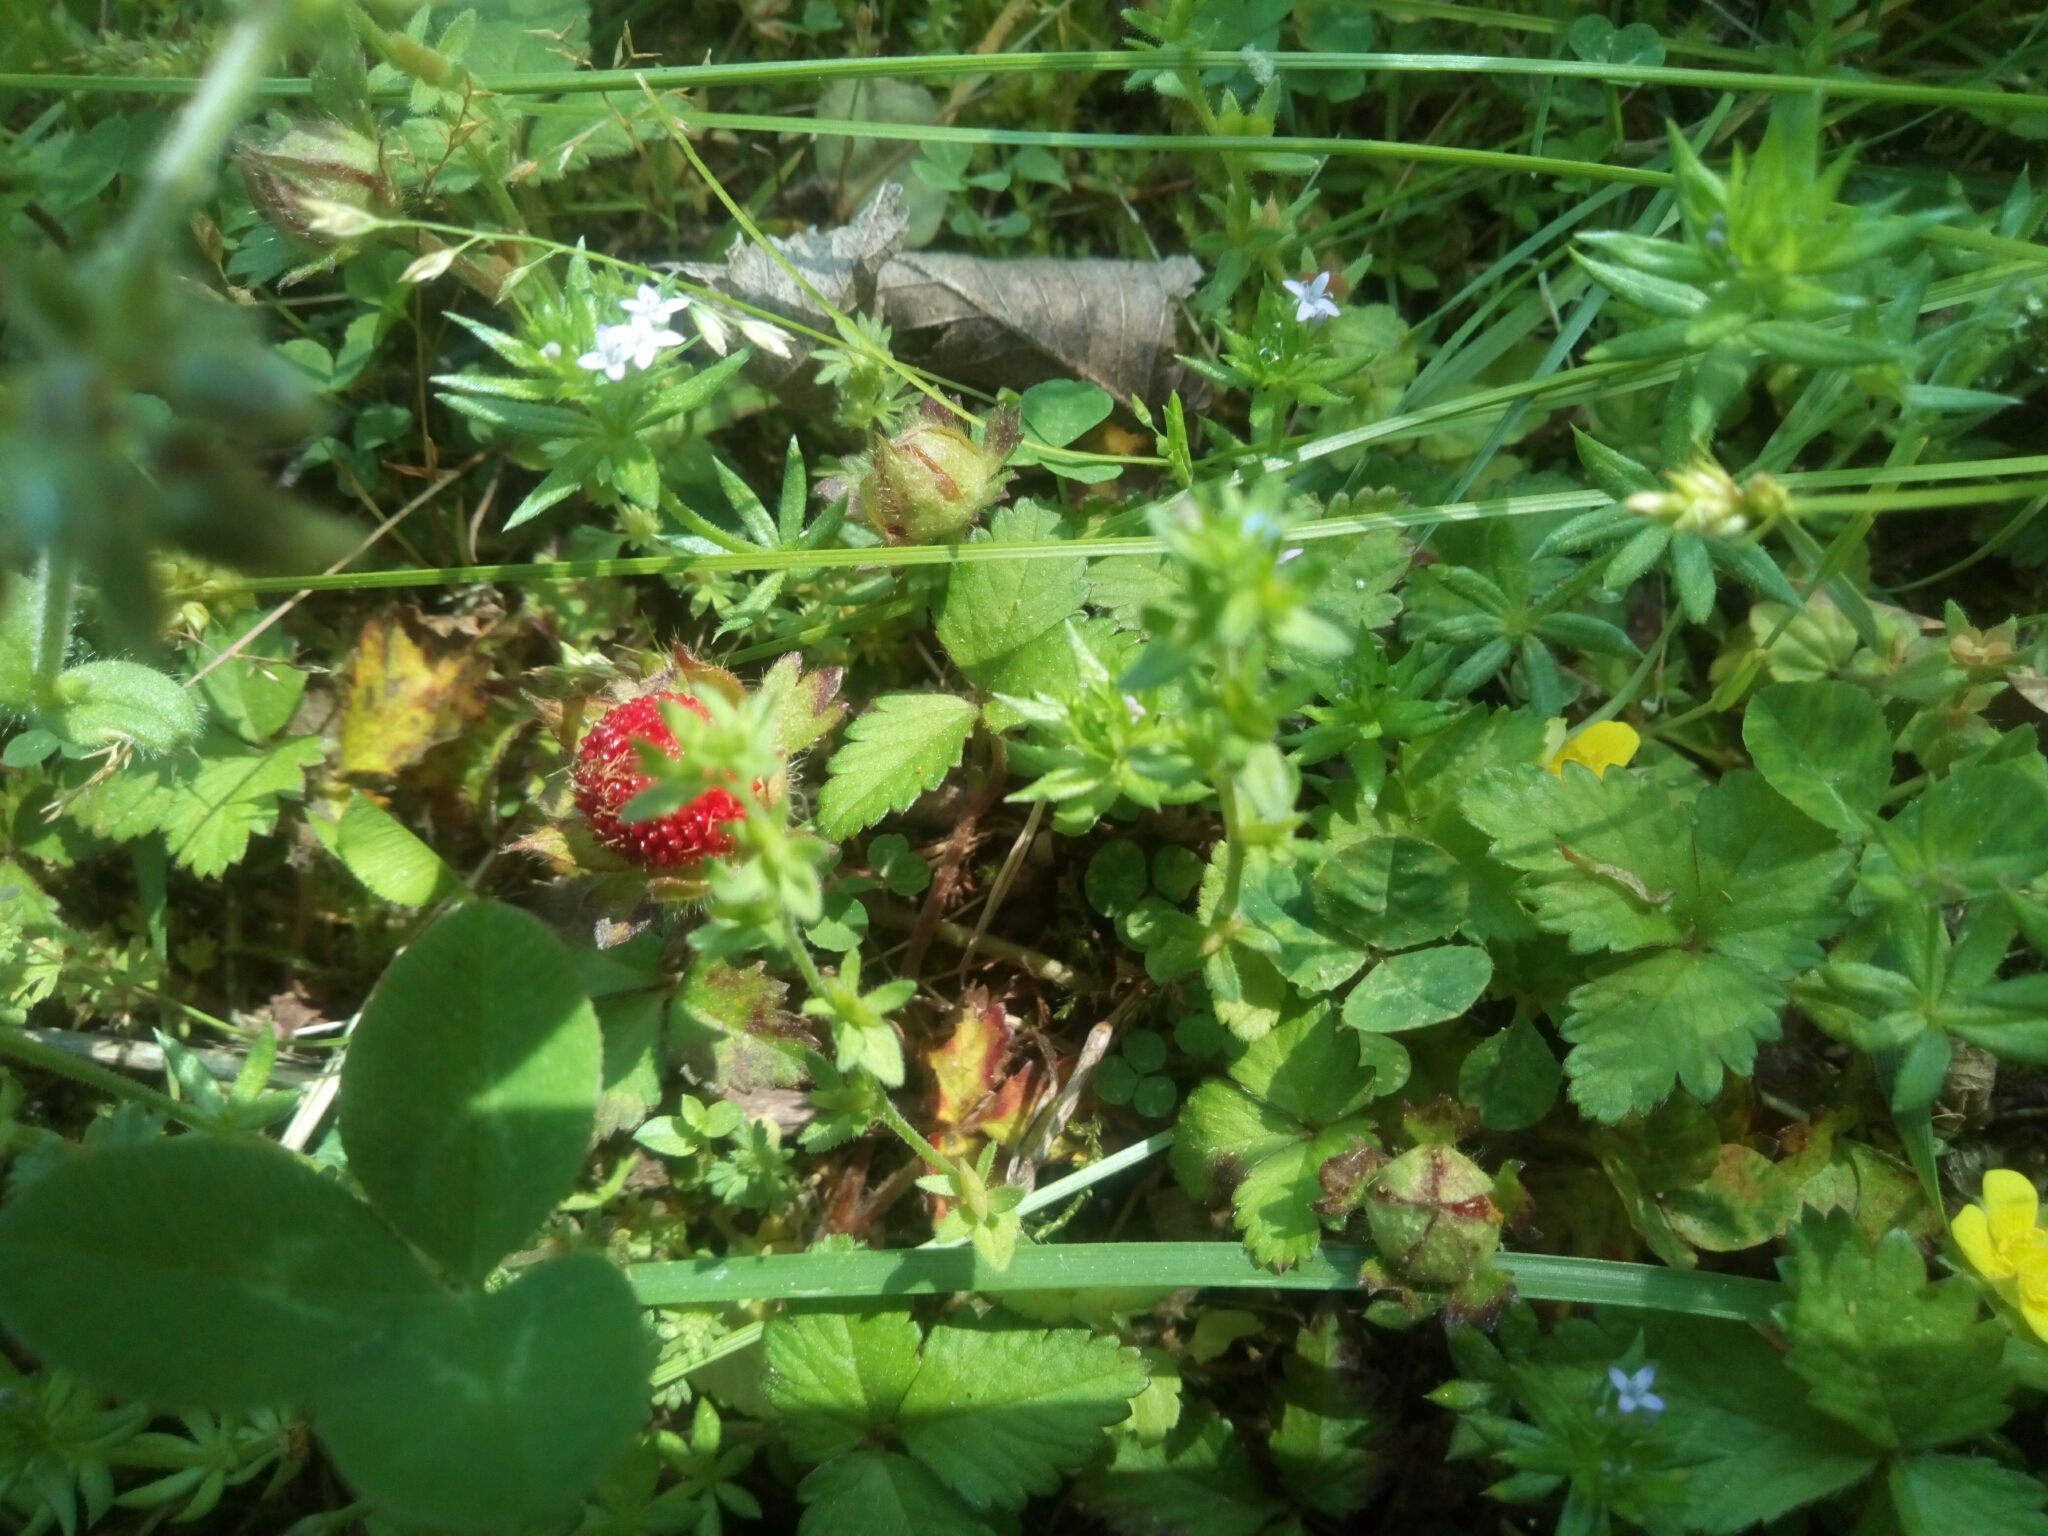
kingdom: Plantae
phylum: Tracheophyta
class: Magnoliopsida
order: Rosales
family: Rosaceae
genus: Potentilla
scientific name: Potentilla indica
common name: Yellow-flowered strawberry
